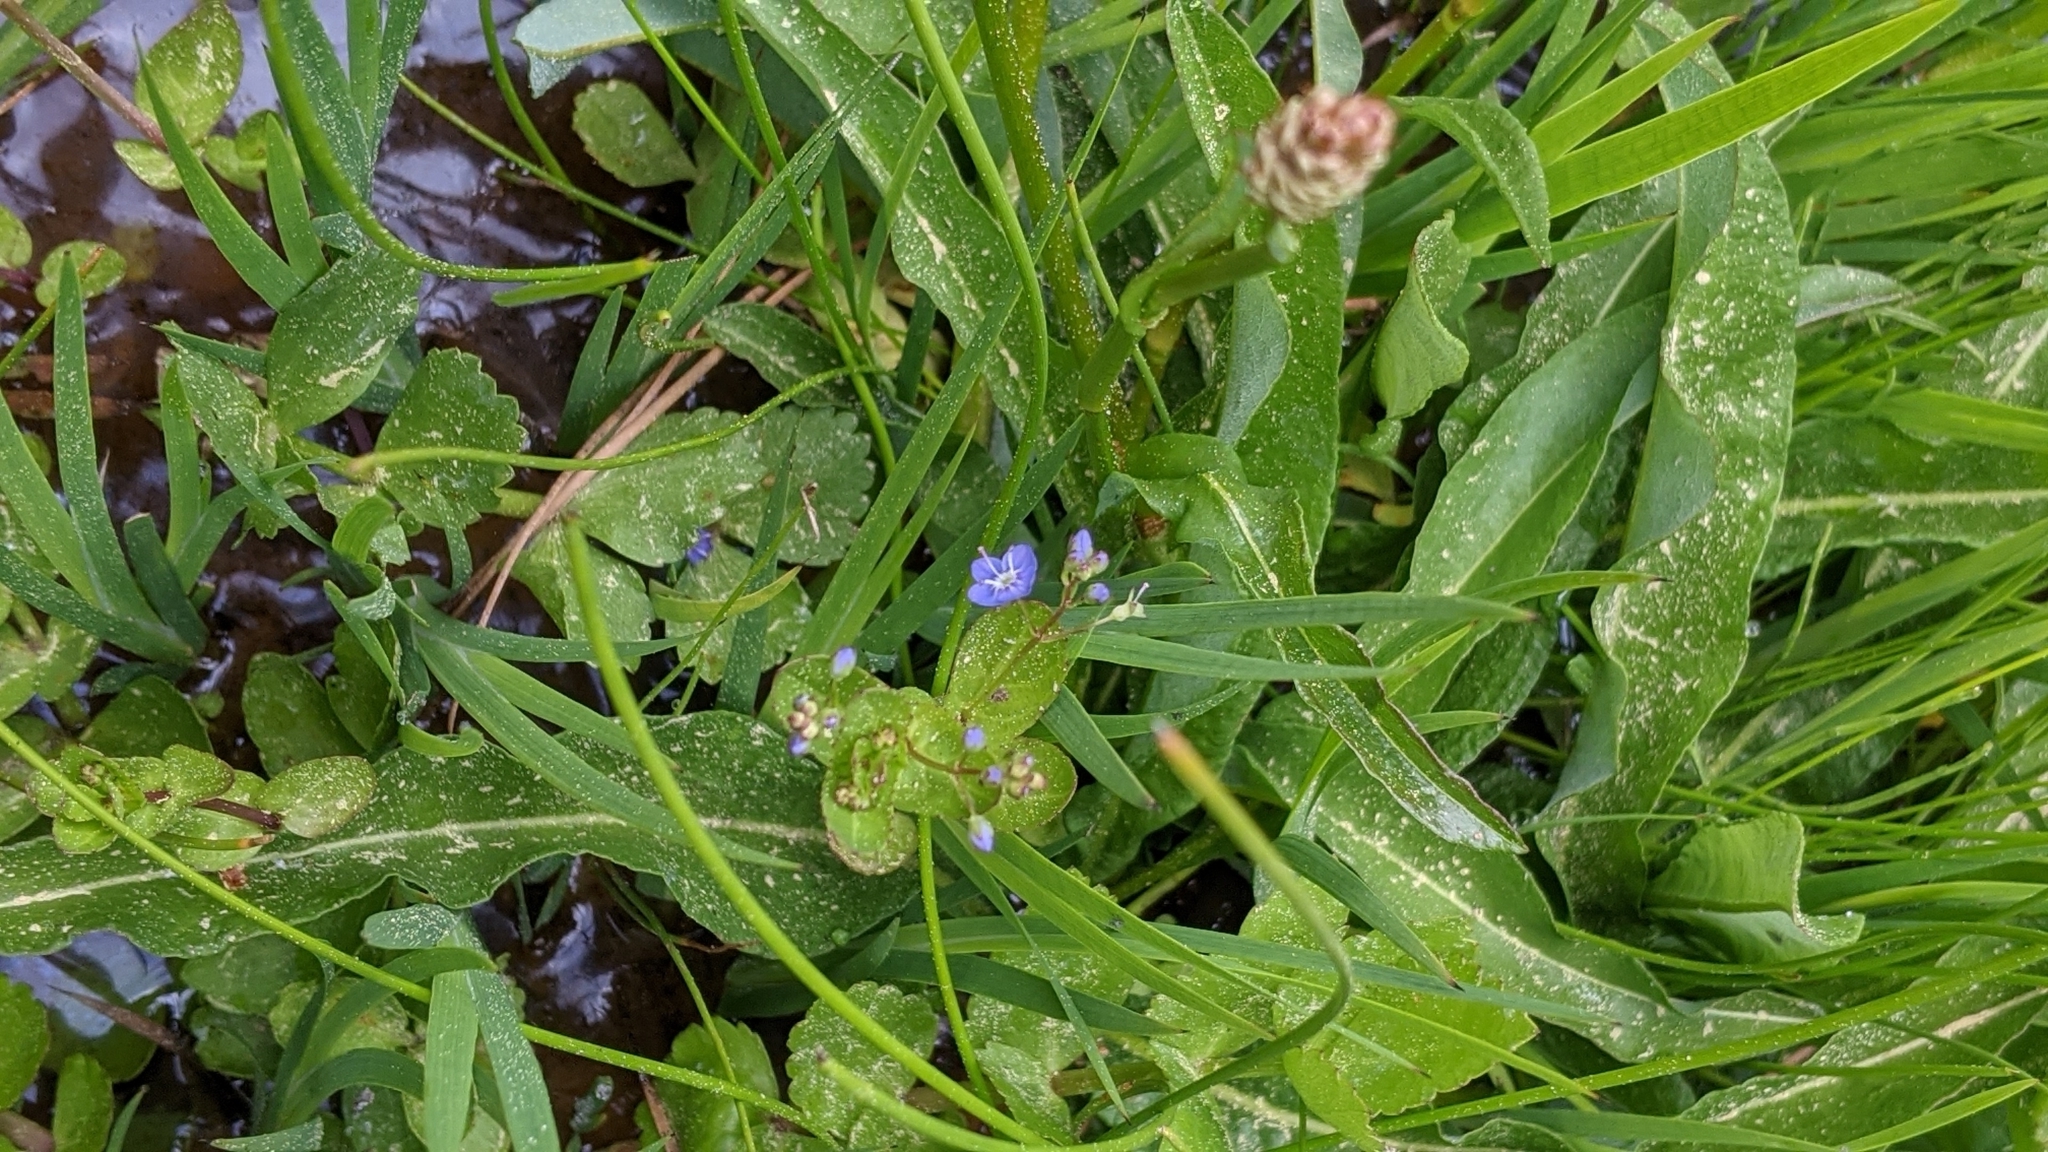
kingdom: Plantae
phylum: Tracheophyta
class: Magnoliopsida
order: Lamiales
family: Plantaginaceae
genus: Veronica
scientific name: Veronica americana
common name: American brooklime
